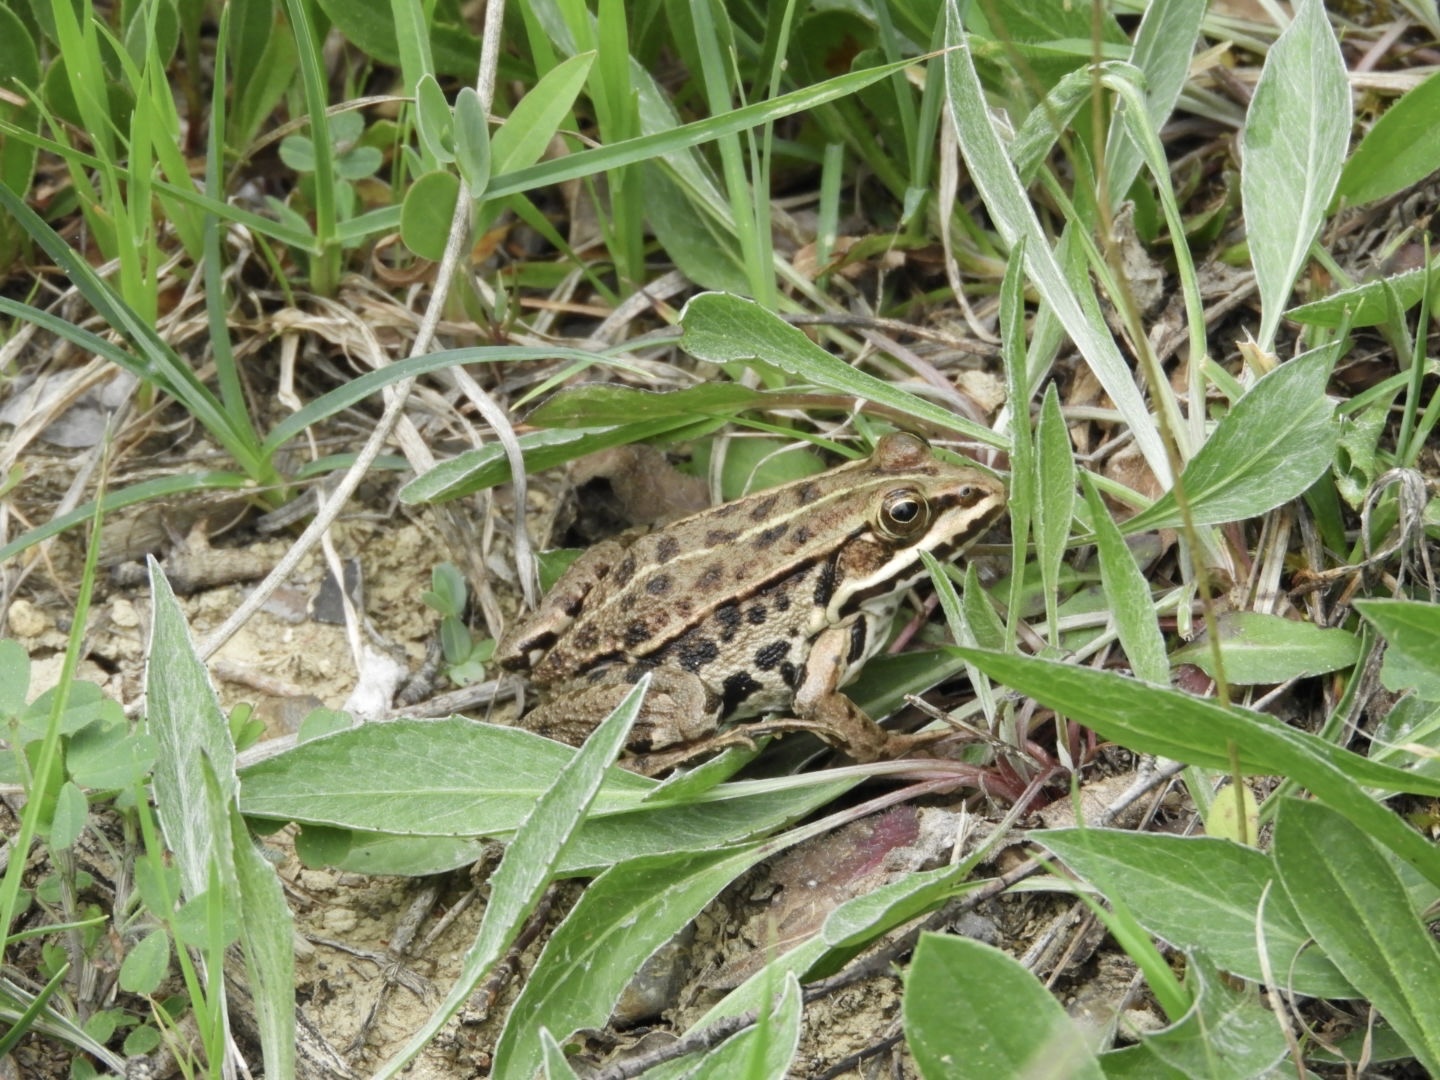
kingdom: Animalia
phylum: Chordata
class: Amphibia
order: Anura
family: Ranidae
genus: Pelophylax
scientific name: Pelophylax
